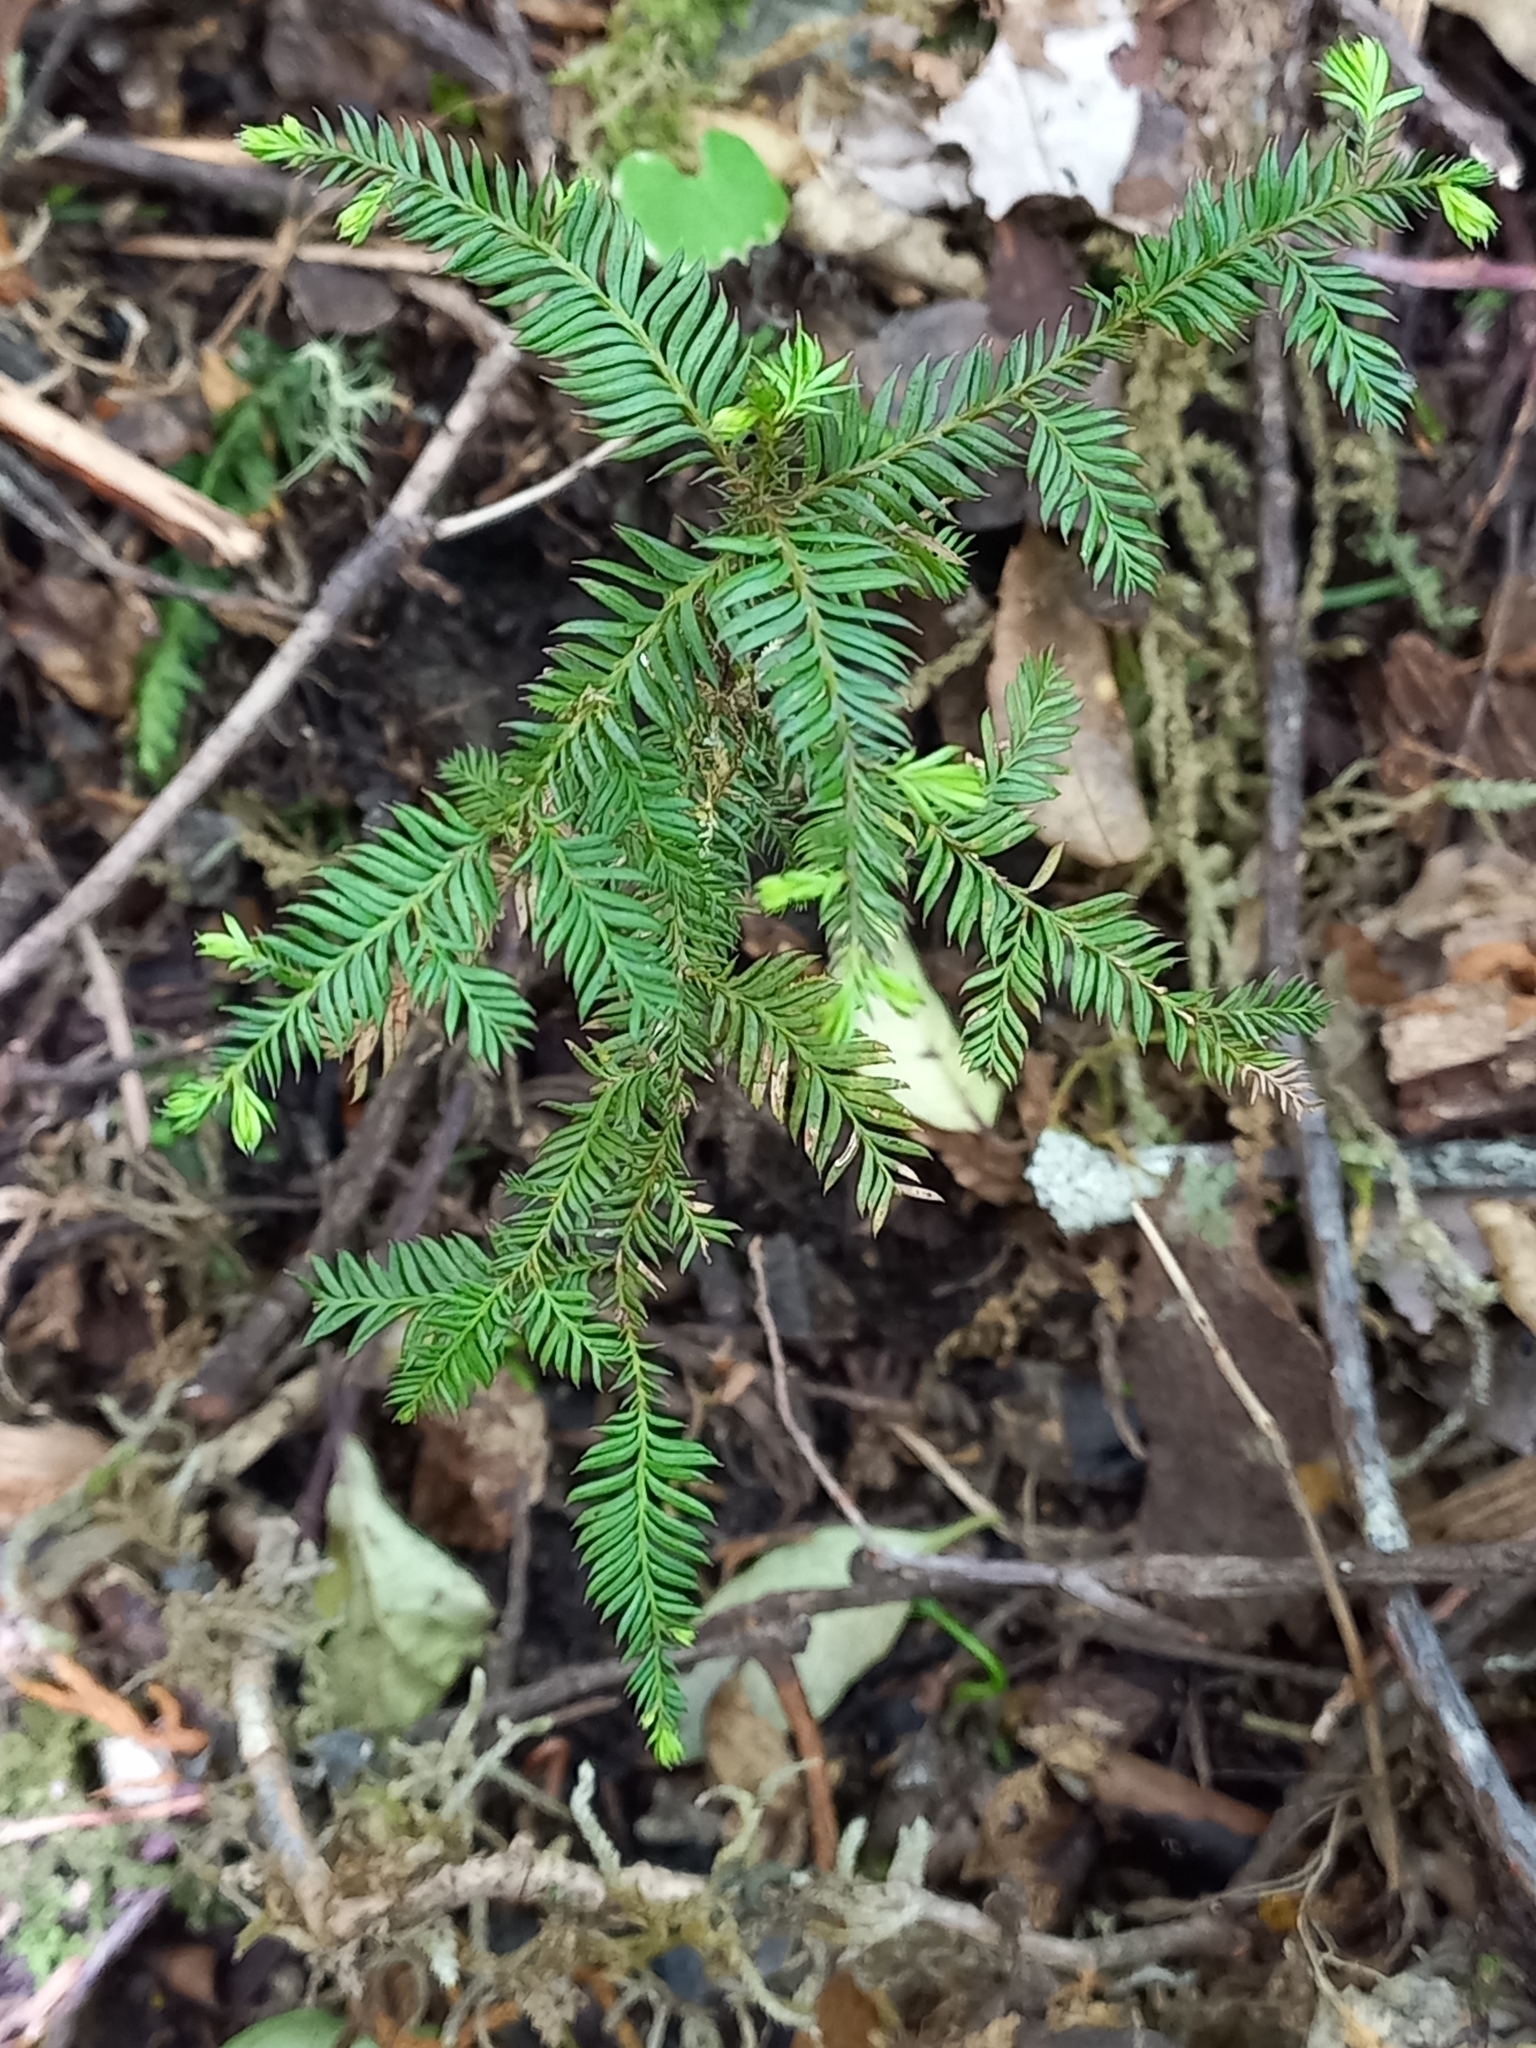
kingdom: Plantae
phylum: Tracheophyta
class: Pinopsida
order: Pinales
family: Podocarpaceae
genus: Dacrycarpus
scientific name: Dacrycarpus dacrydioides
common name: White pine
